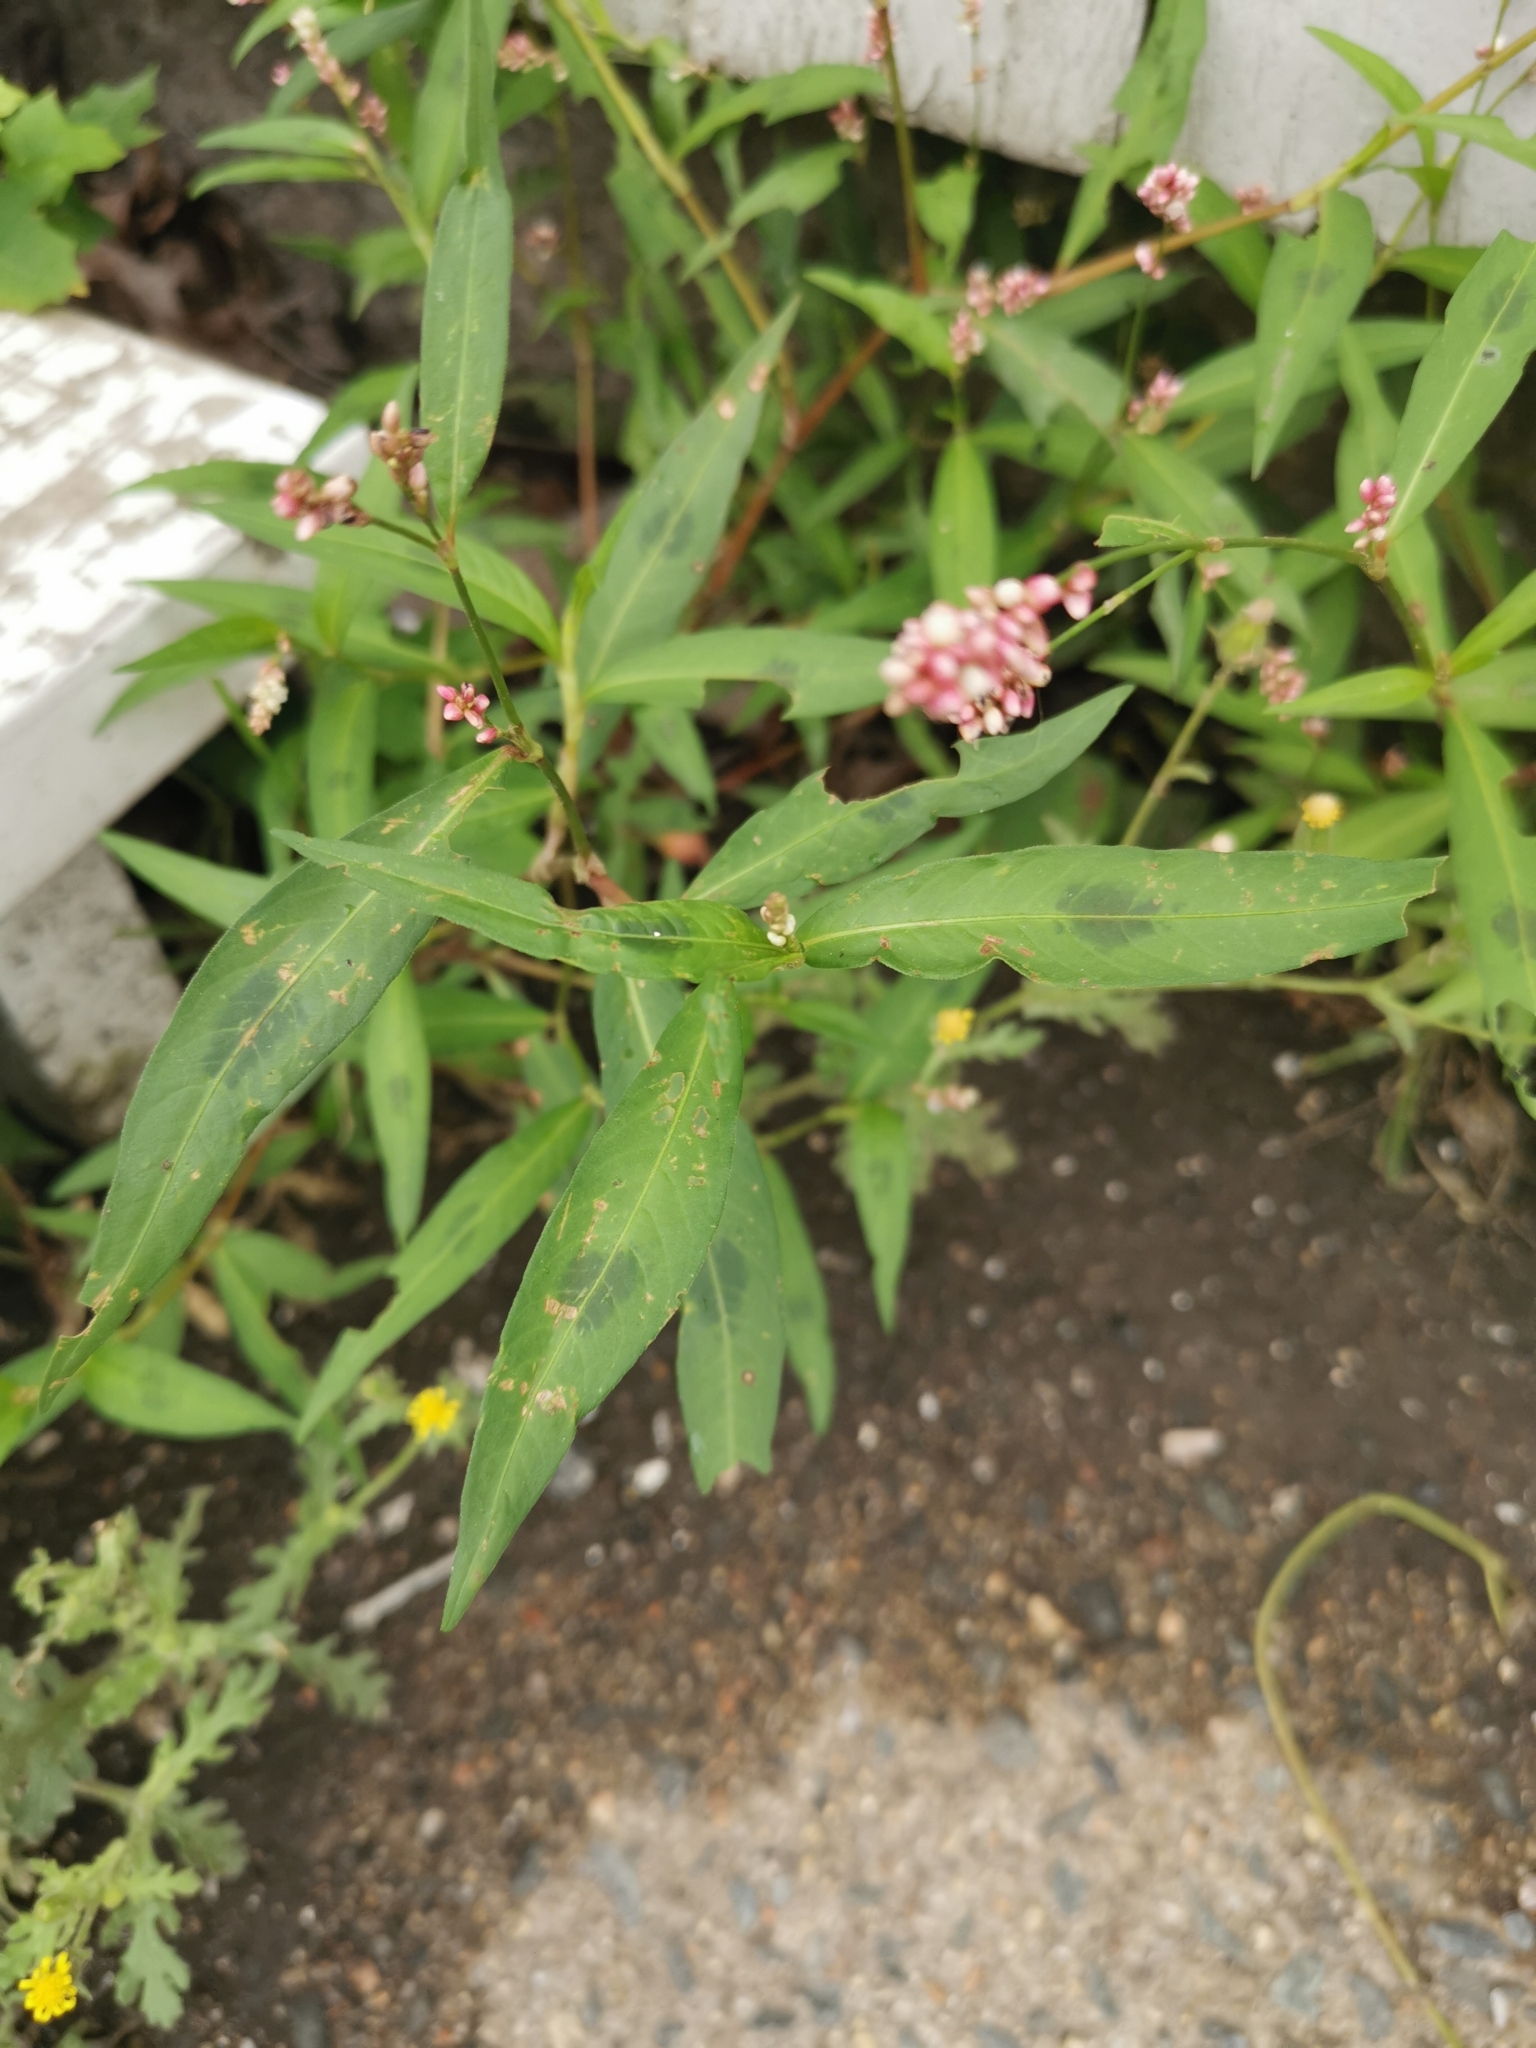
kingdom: Plantae
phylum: Tracheophyta
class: Magnoliopsida
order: Caryophyllales
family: Polygonaceae
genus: Persicaria
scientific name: Persicaria maculosa
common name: Redshank
